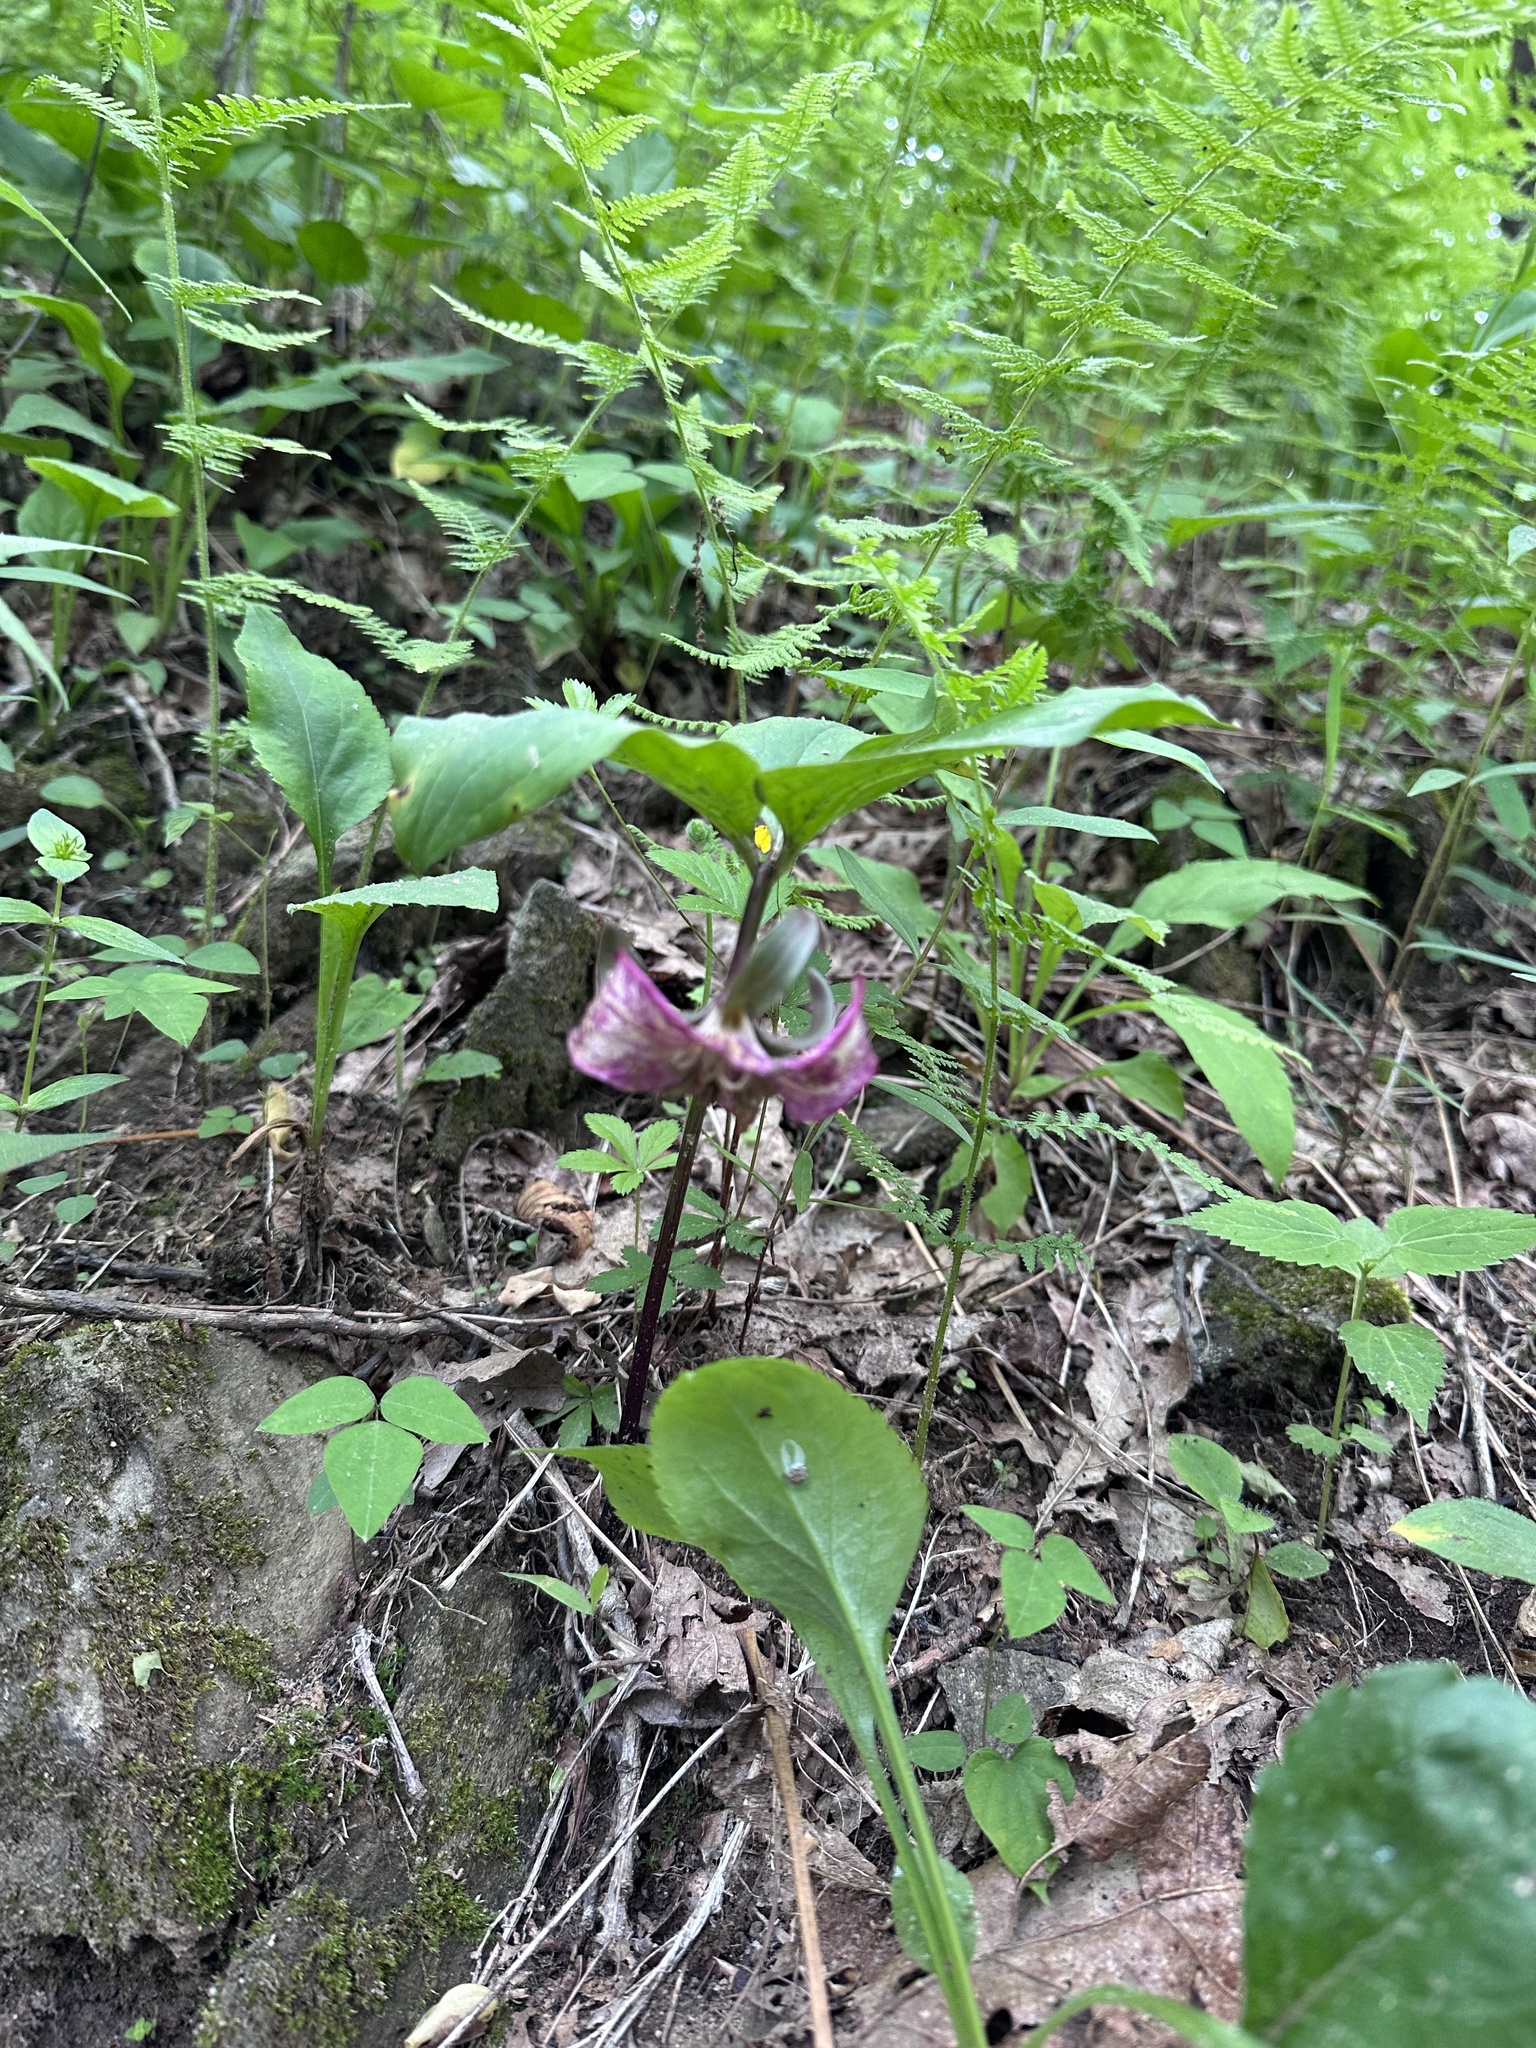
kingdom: Plantae
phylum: Tracheophyta
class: Liliopsida
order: Liliales
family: Melanthiaceae
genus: Trillium
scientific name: Trillium catesbaei
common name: Bashful trillium
